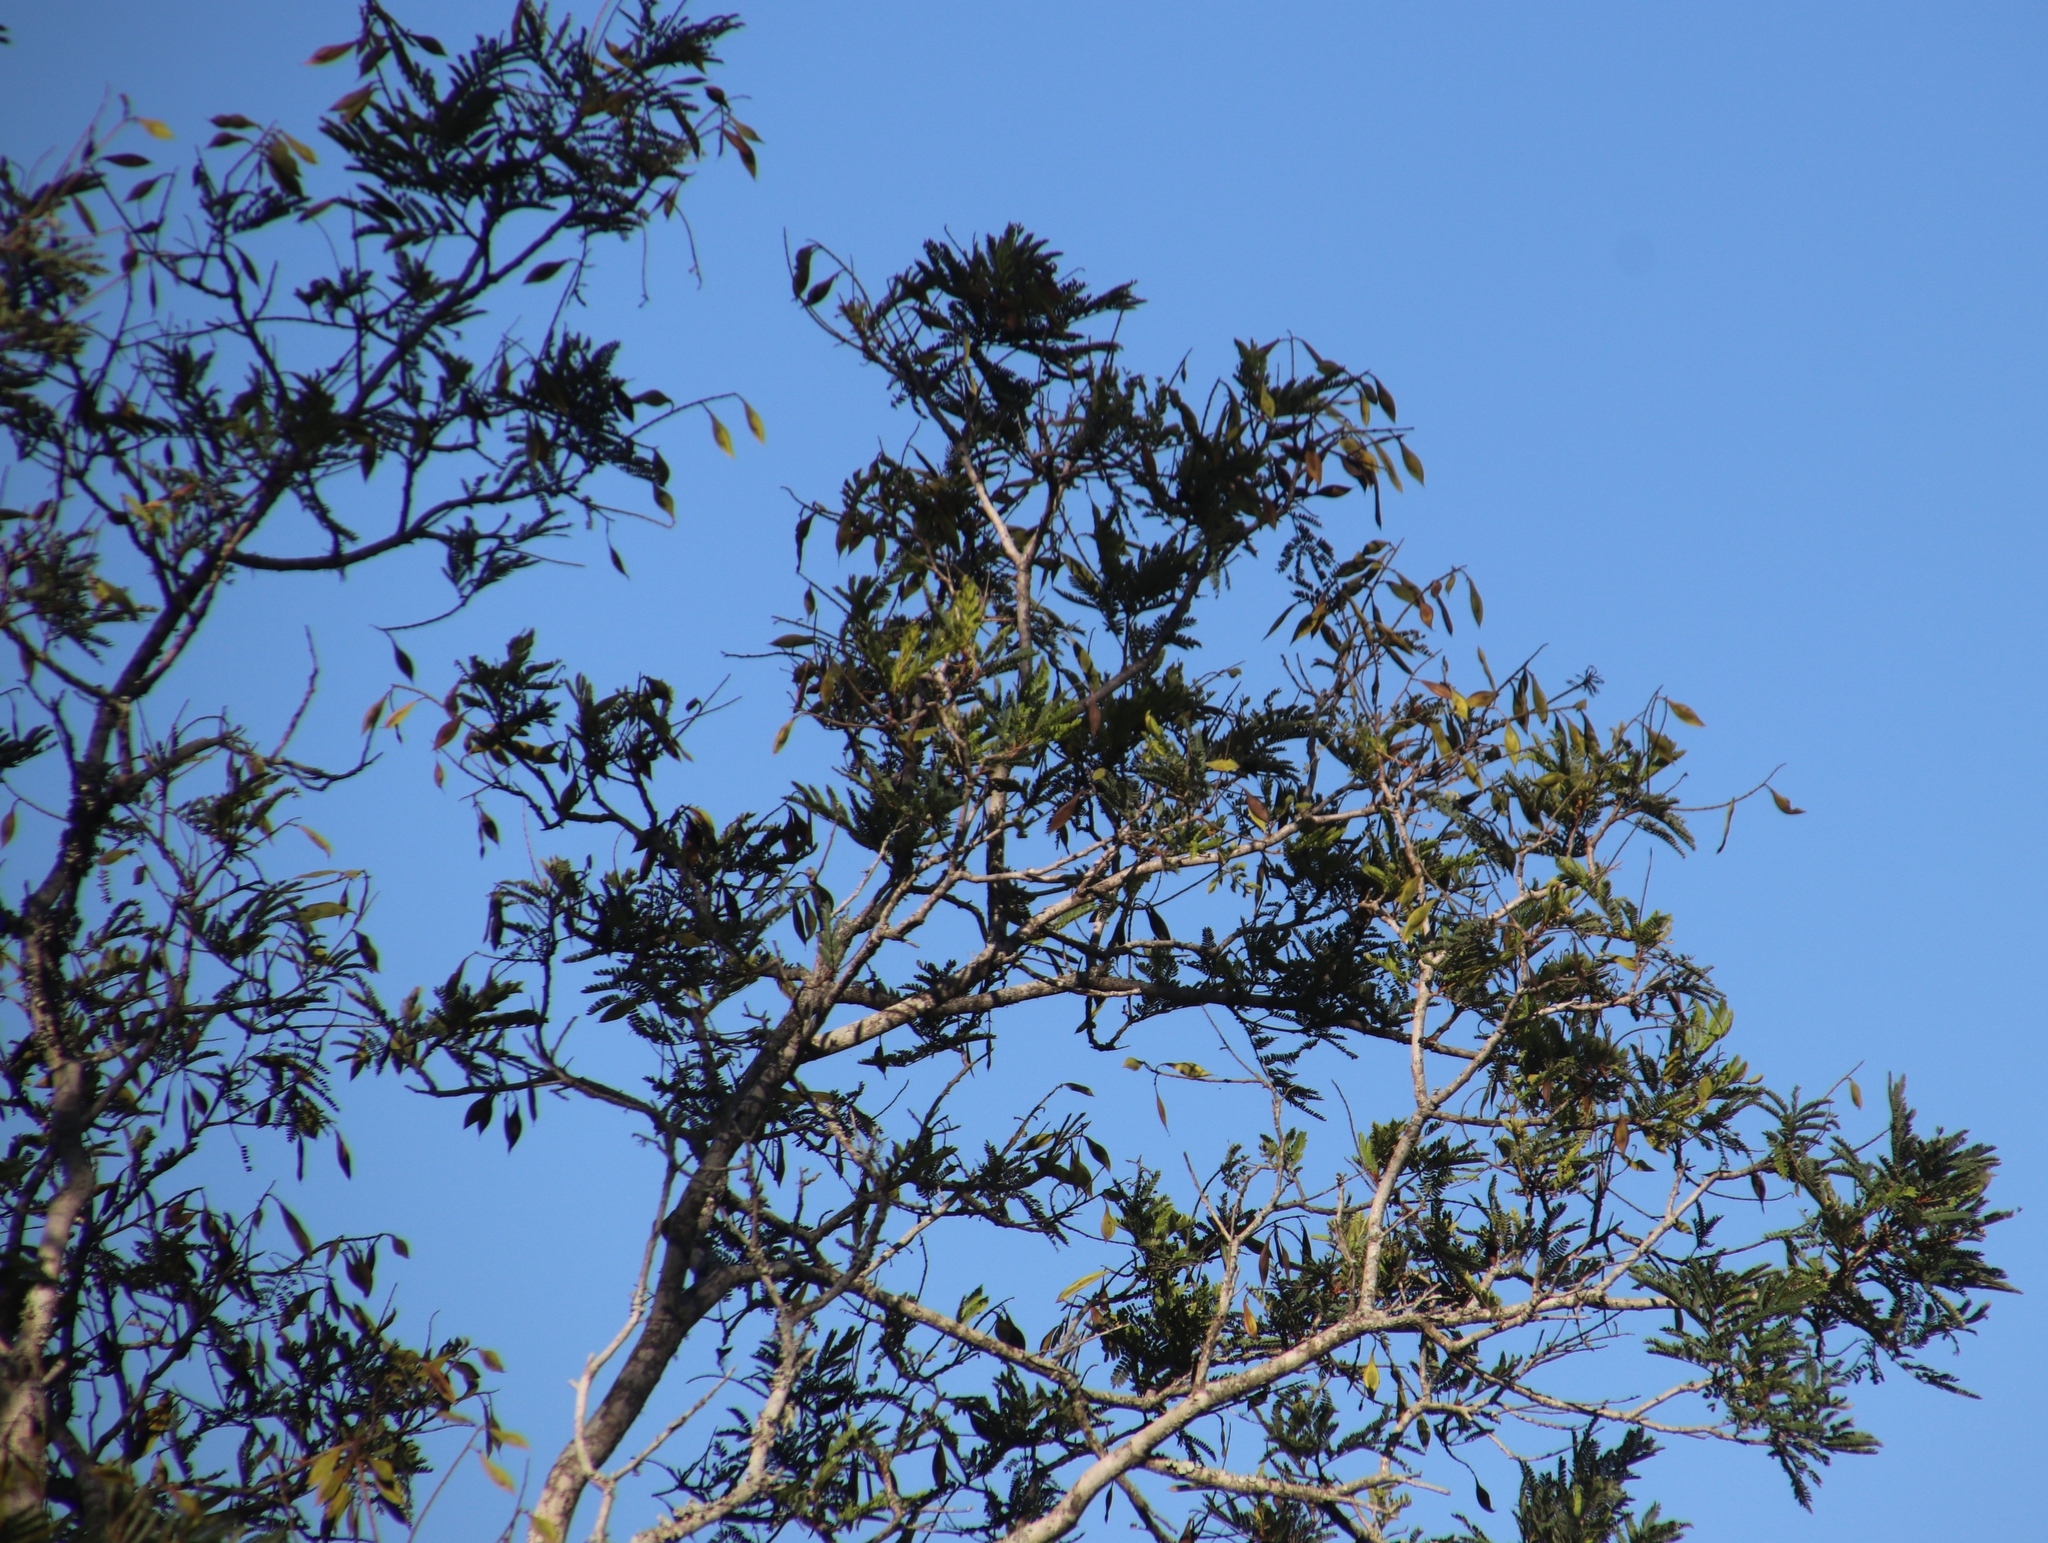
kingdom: Plantae
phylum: Tracheophyta
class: Magnoliopsida
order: Fabales
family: Fabaceae
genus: Peltophorum
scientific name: Peltophorum africanum
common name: African black wattle
